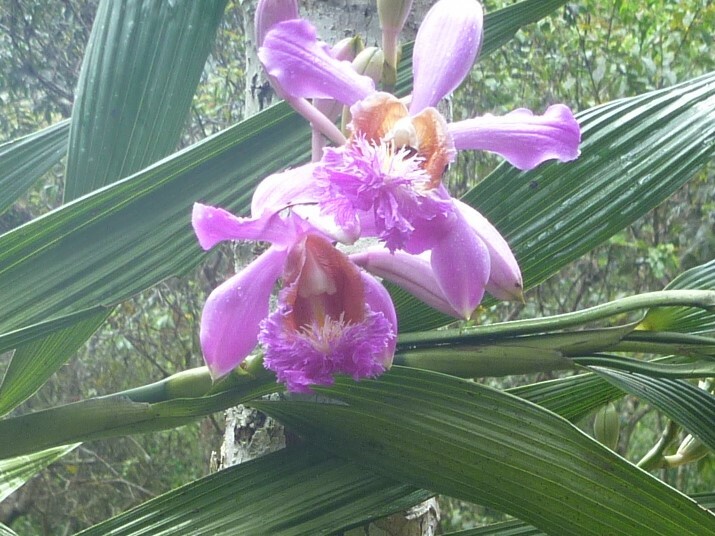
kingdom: Plantae
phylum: Tracheophyta
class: Liliopsida
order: Asparagales
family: Orchidaceae
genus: Sobralia
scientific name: Sobralia dichotoma
